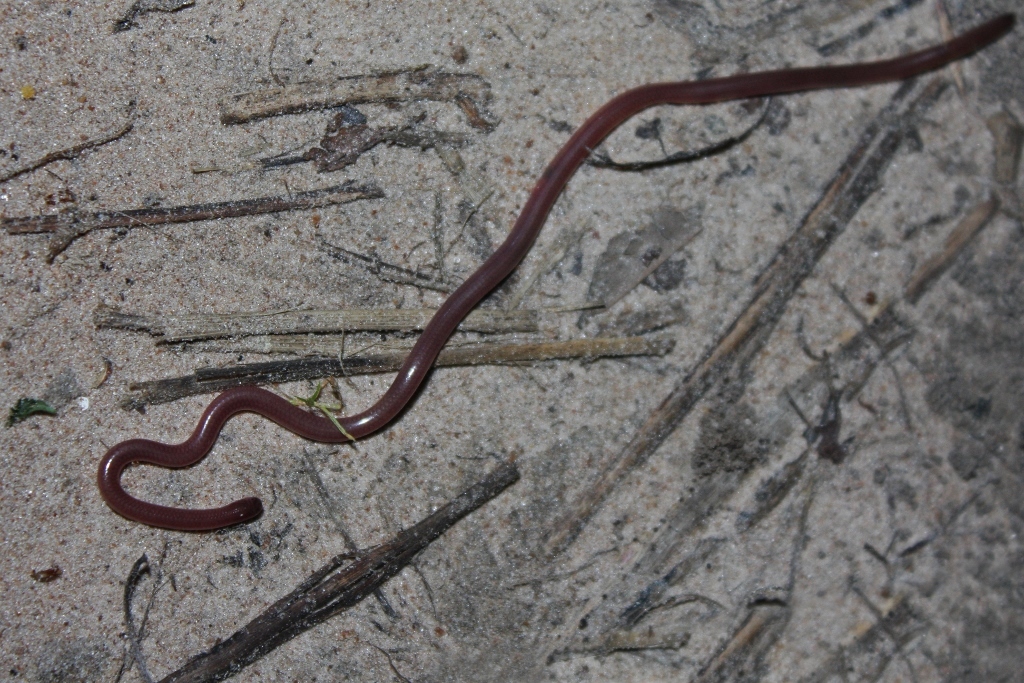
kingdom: Animalia
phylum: Chordata
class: Squamata
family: Leptotyphlopidae
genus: Myriopholis
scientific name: Myriopholis narirostris
